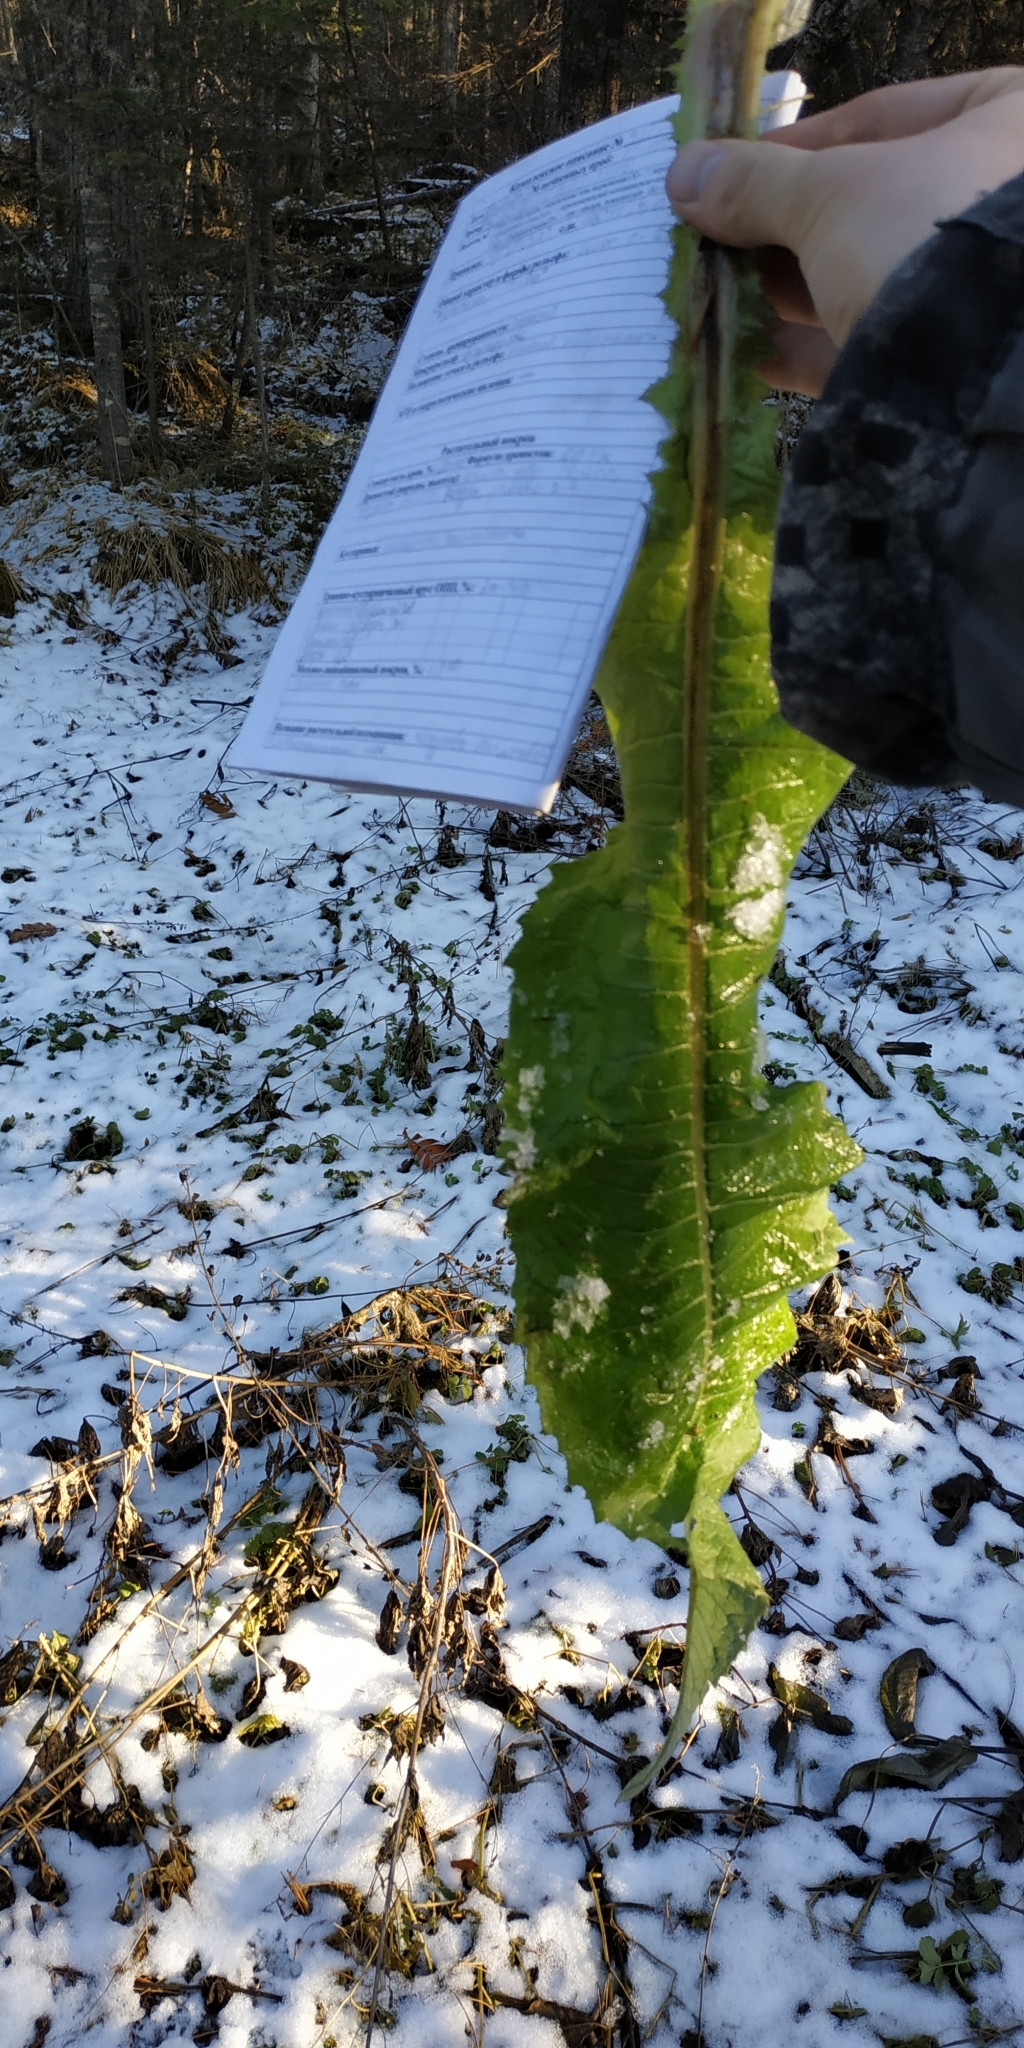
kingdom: Plantae
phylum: Tracheophyta
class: Magnoliopsida
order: Asterales
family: Asteraceae
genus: Cirsium
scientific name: Cirsium helenioides
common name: Melancholy thistle
